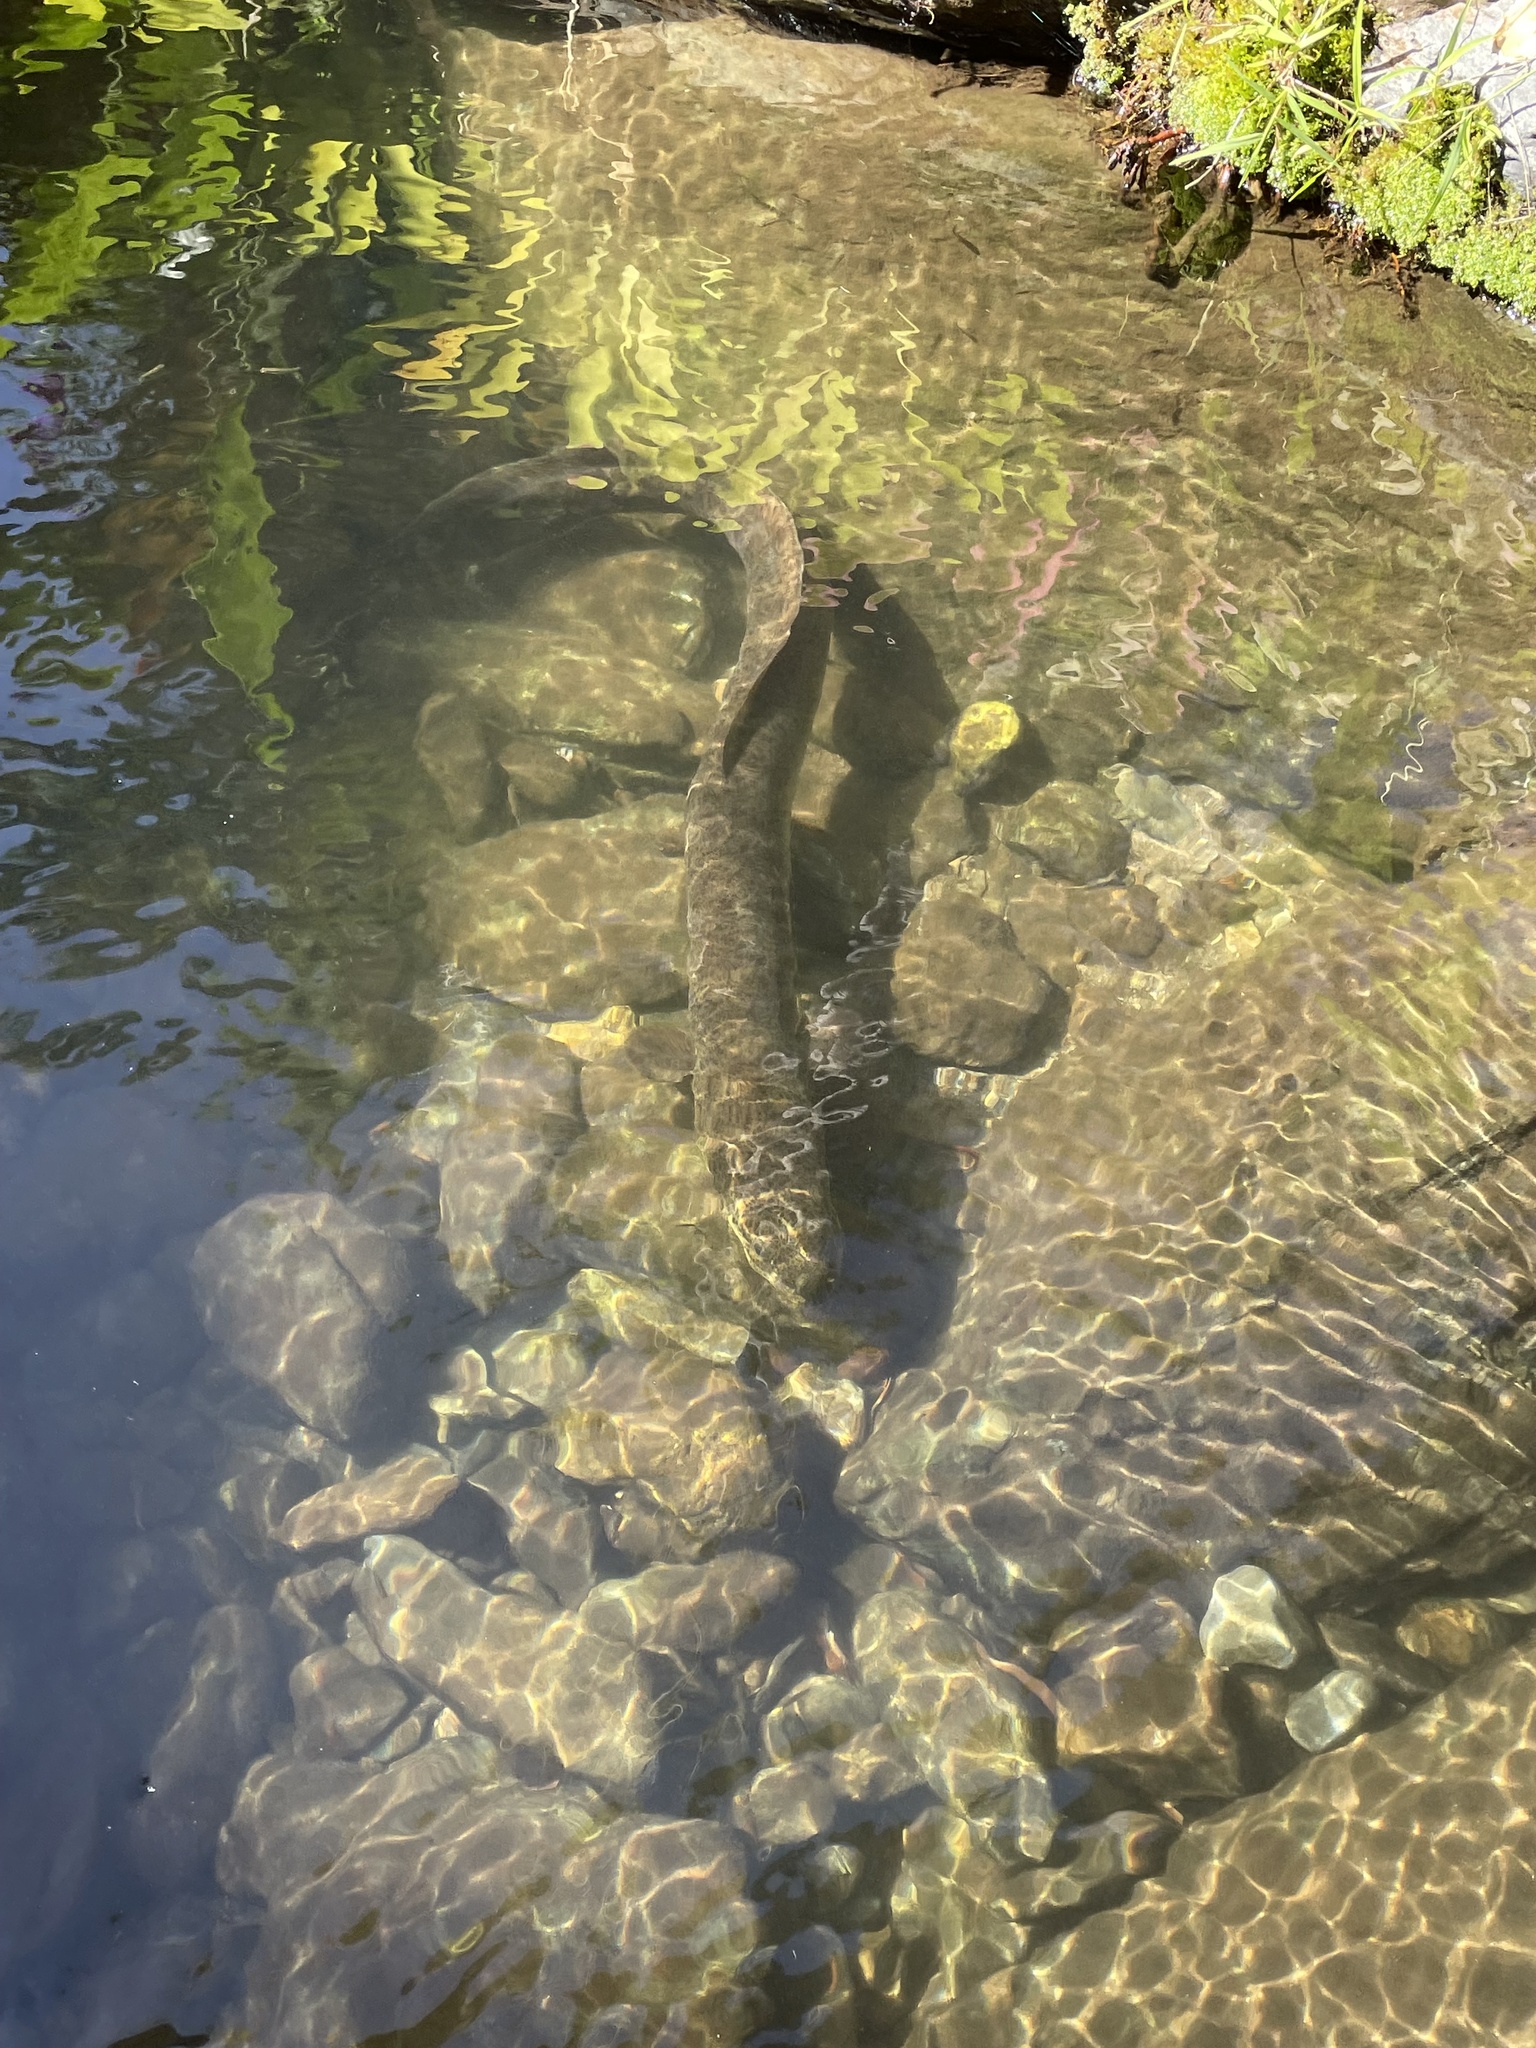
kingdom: Animalia
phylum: Chordata
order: Anguilliformes
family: Anguillidae
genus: Anguilla
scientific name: Anguilla reinhardtii
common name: Longfin eel
